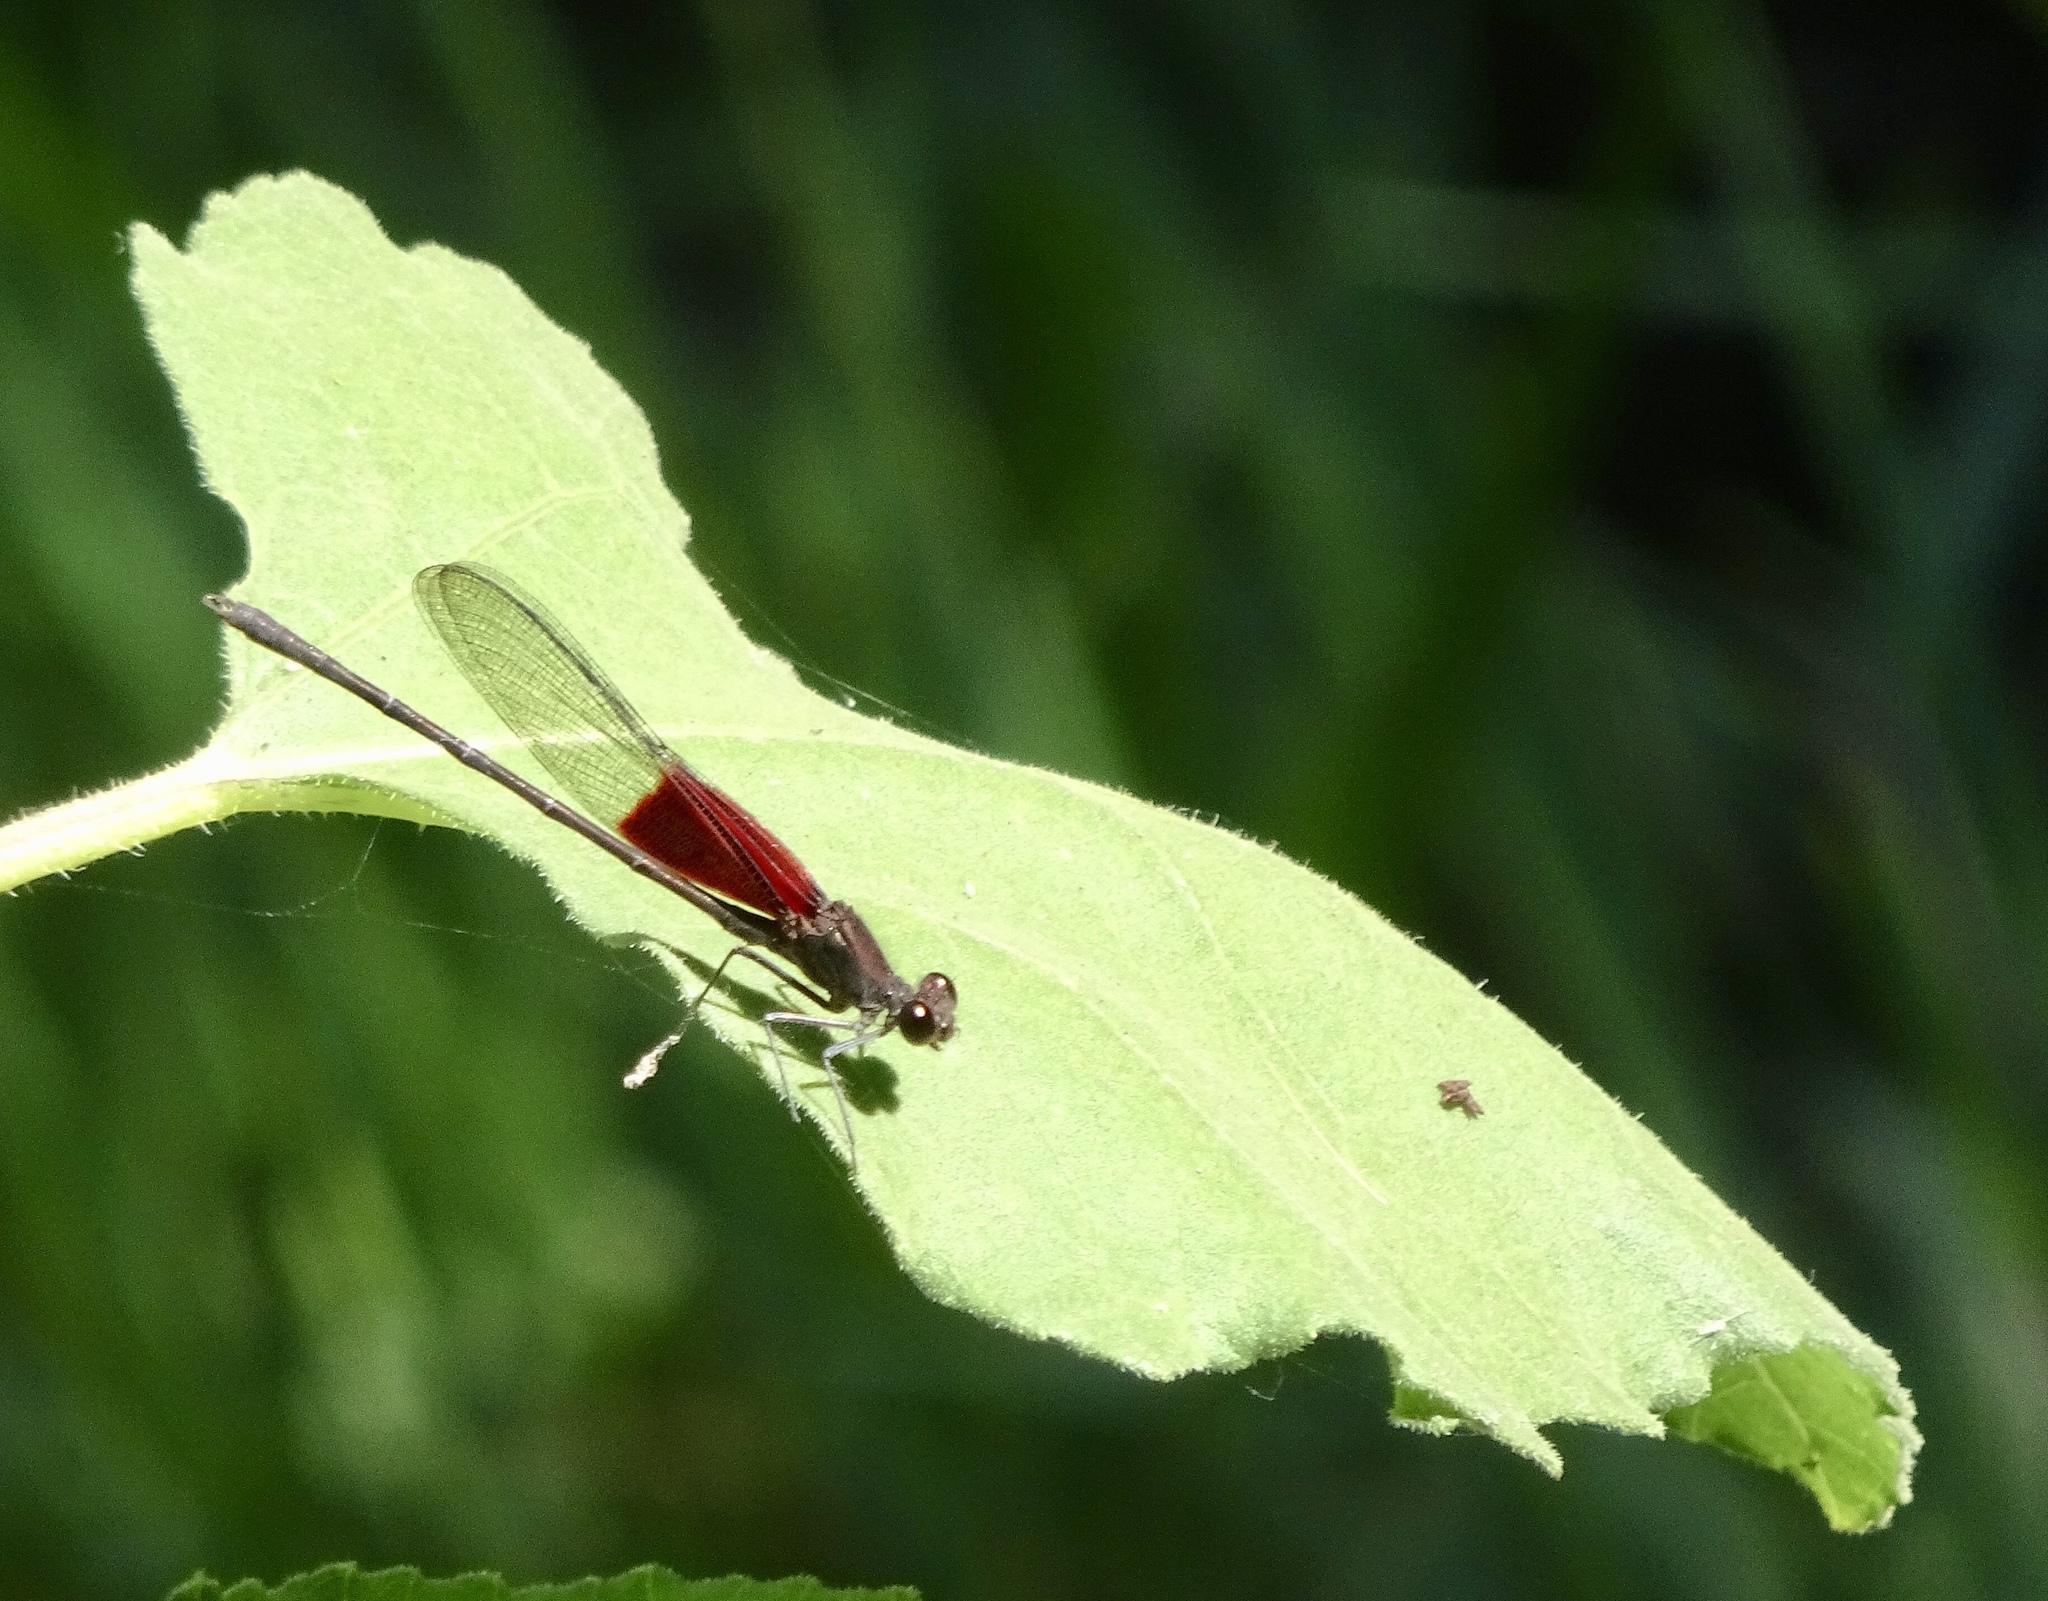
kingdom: Animalia
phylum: Arthropoda
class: Insecta
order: Odonata
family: Calopterygidae
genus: Hetaerina
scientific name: Hetaerina americana
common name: American rubyspot
